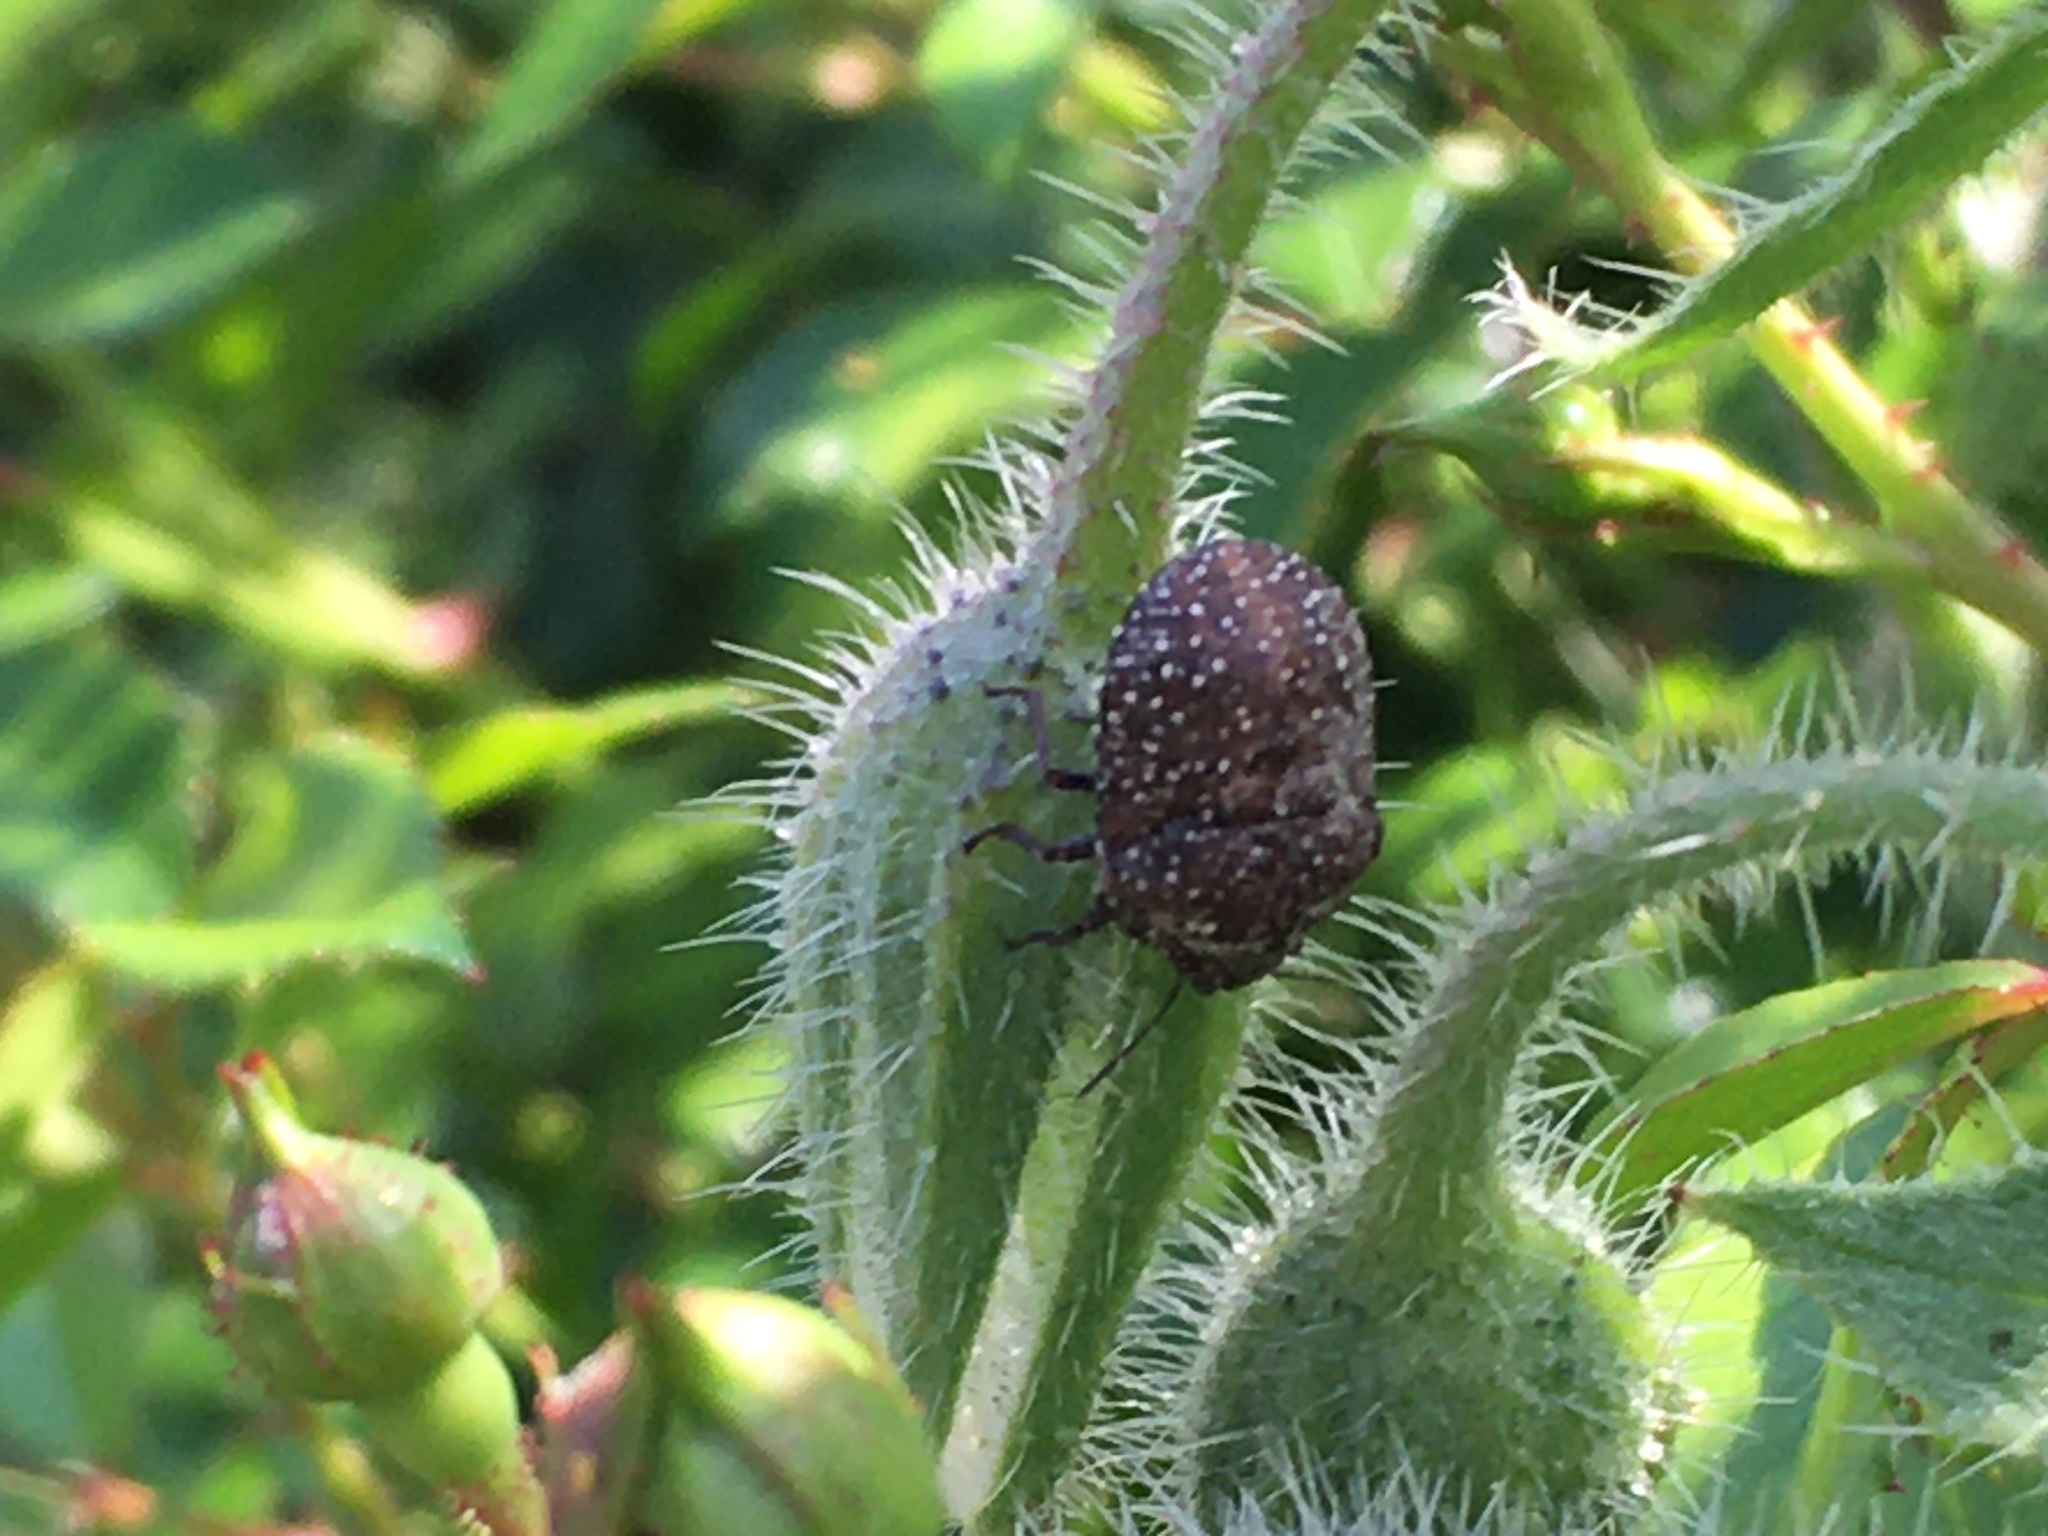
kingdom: Animalia
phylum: Arthropoda
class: Insecta
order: Hemiptera
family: Scutelleridae
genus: Psacasta
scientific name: Psacasta exanthematica
